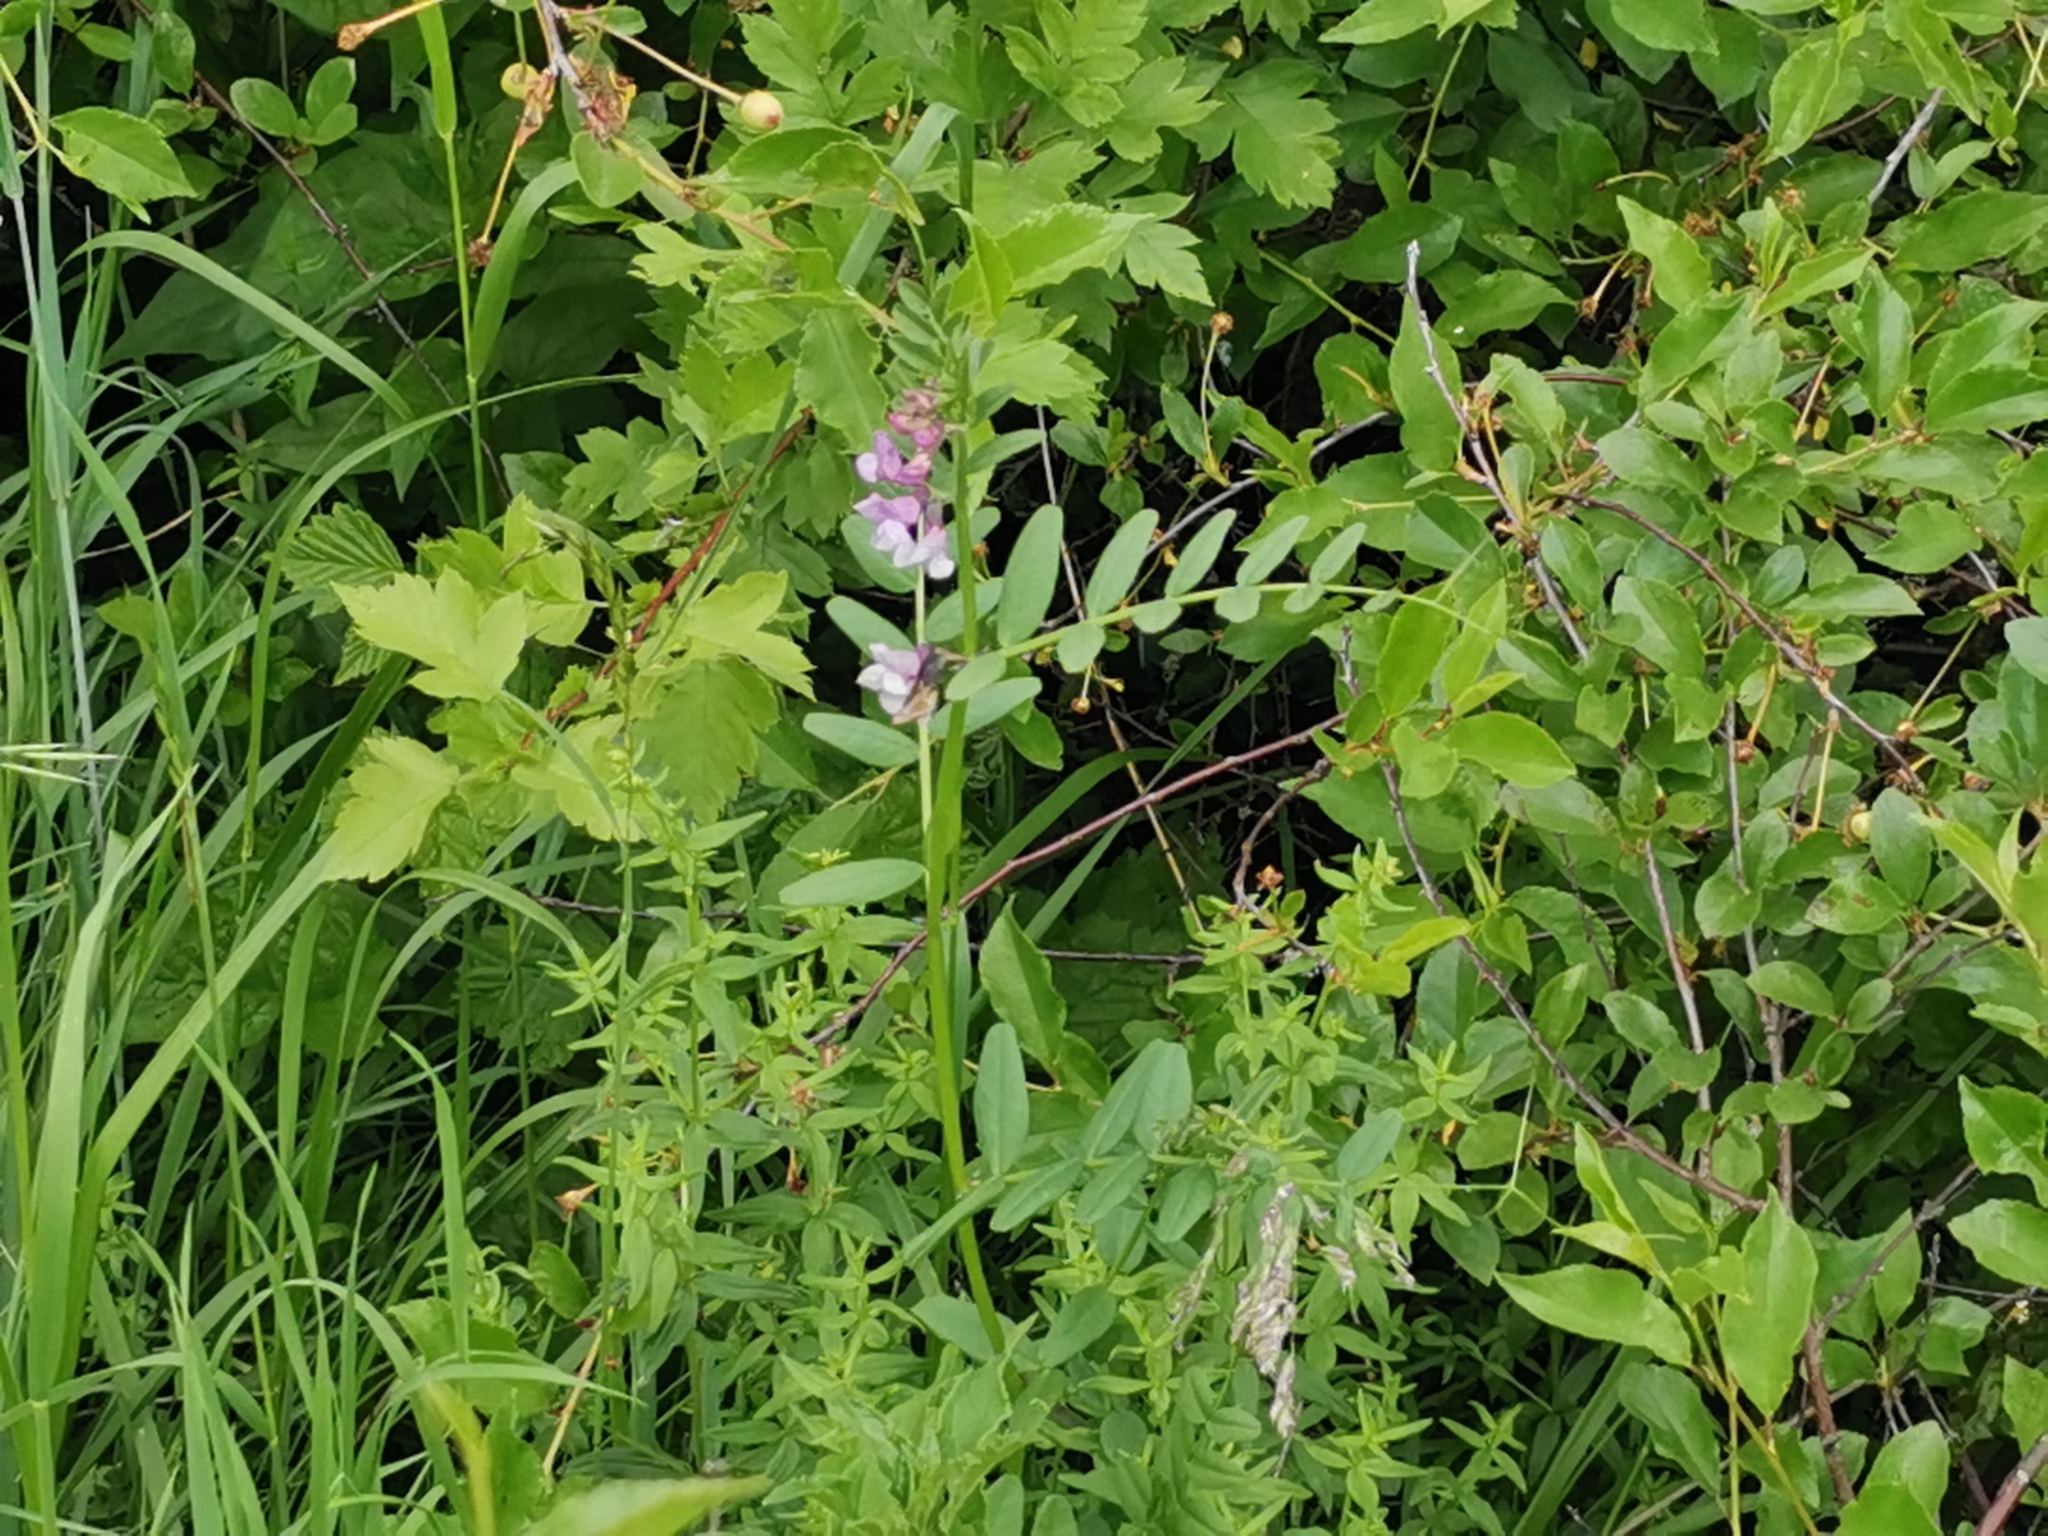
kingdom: Plantae
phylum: Tracheophyta
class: Magnoliopsida
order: Fabales
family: Fabaceae
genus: Vicia
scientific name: Vicia sepium
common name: Bush vetch
